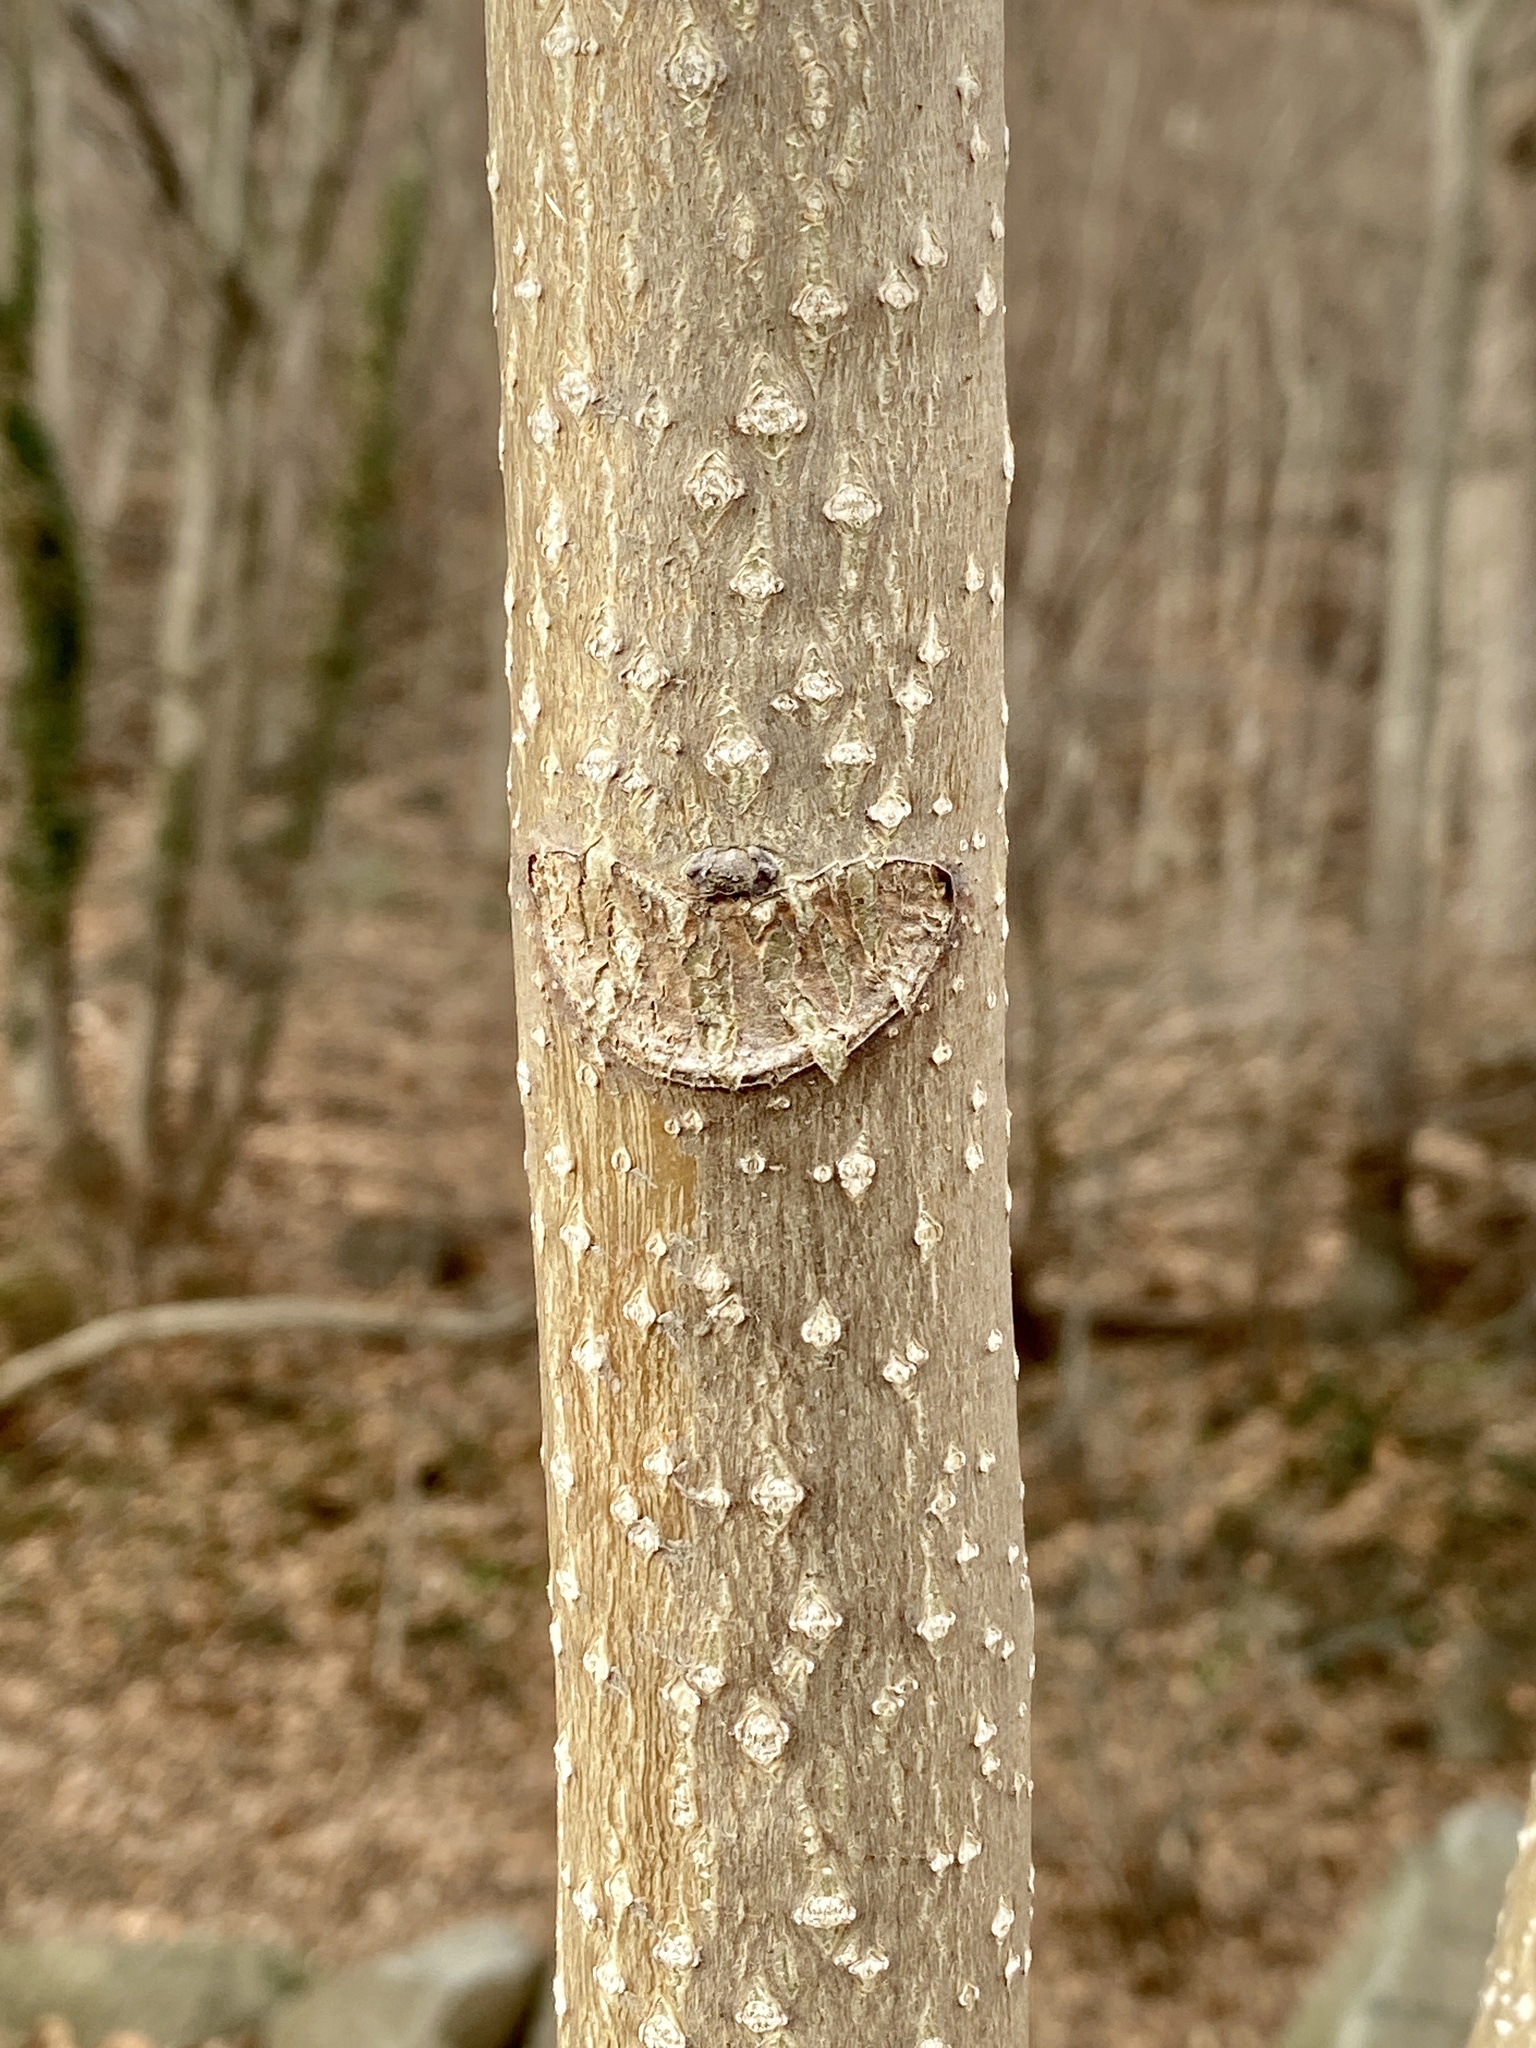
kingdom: Plantae
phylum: Tracheophyta
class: Magnoliopsida
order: Sapindales
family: Simaroubaceae
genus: Ailanthus
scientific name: Ailanthus altissima
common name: Tree-of-heaven
